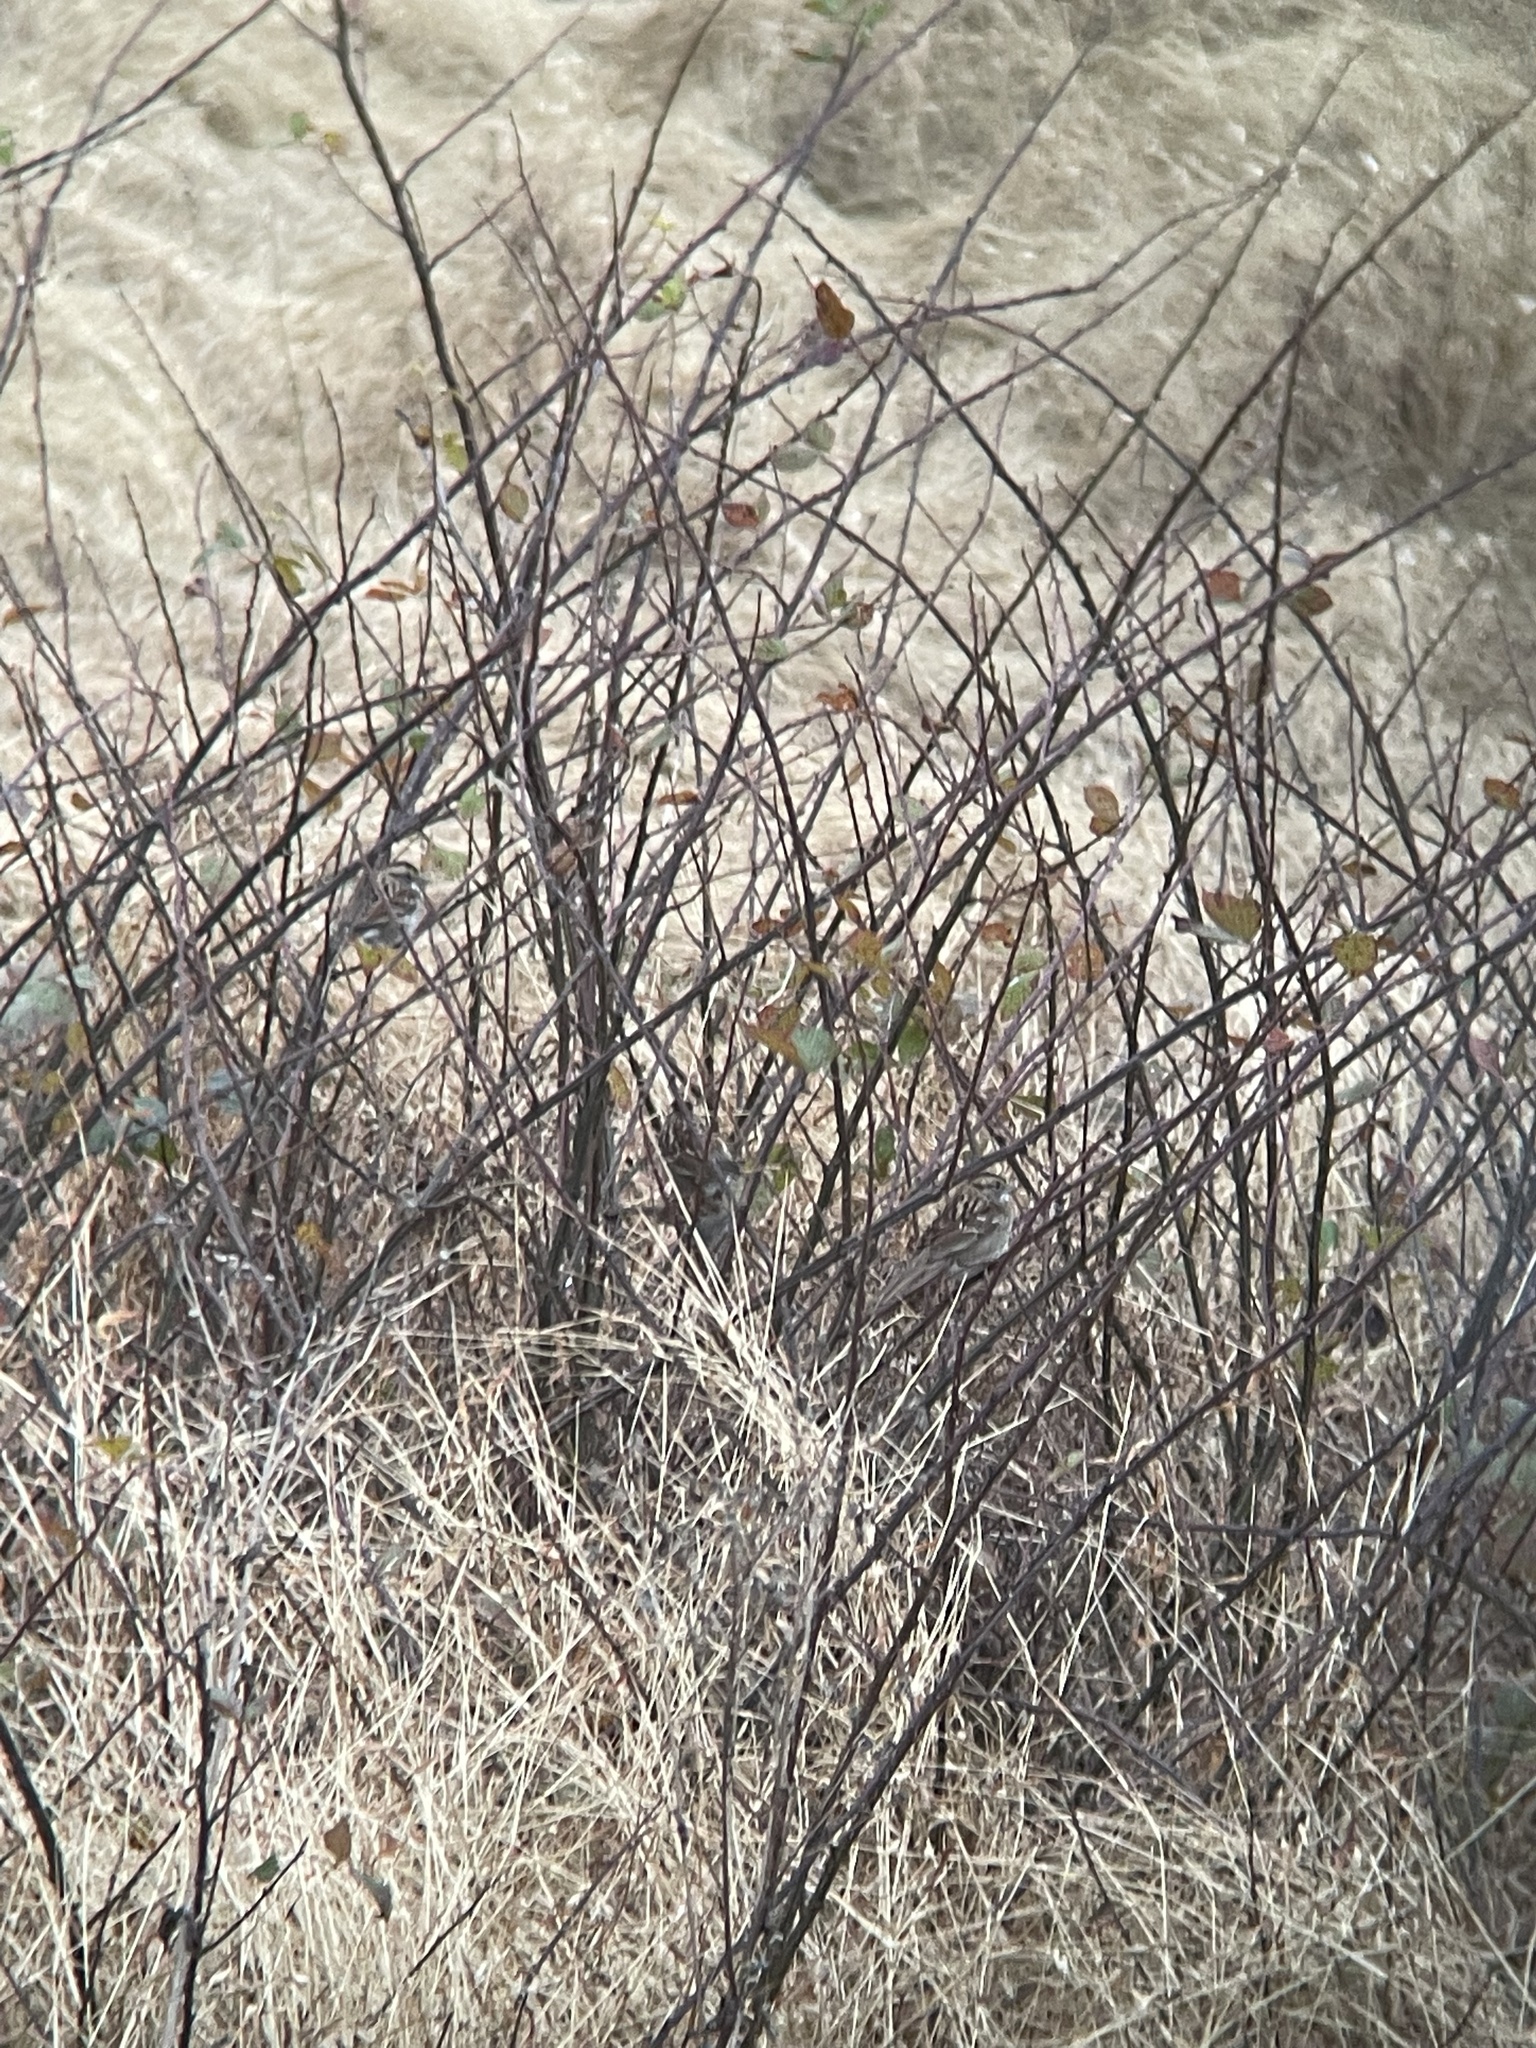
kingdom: Animalia
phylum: Chordata
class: Aves
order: Passeriformes
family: Passerellidae
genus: Zonotrichia
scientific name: Zonotrichia albicollis
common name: White-throated sparrow
